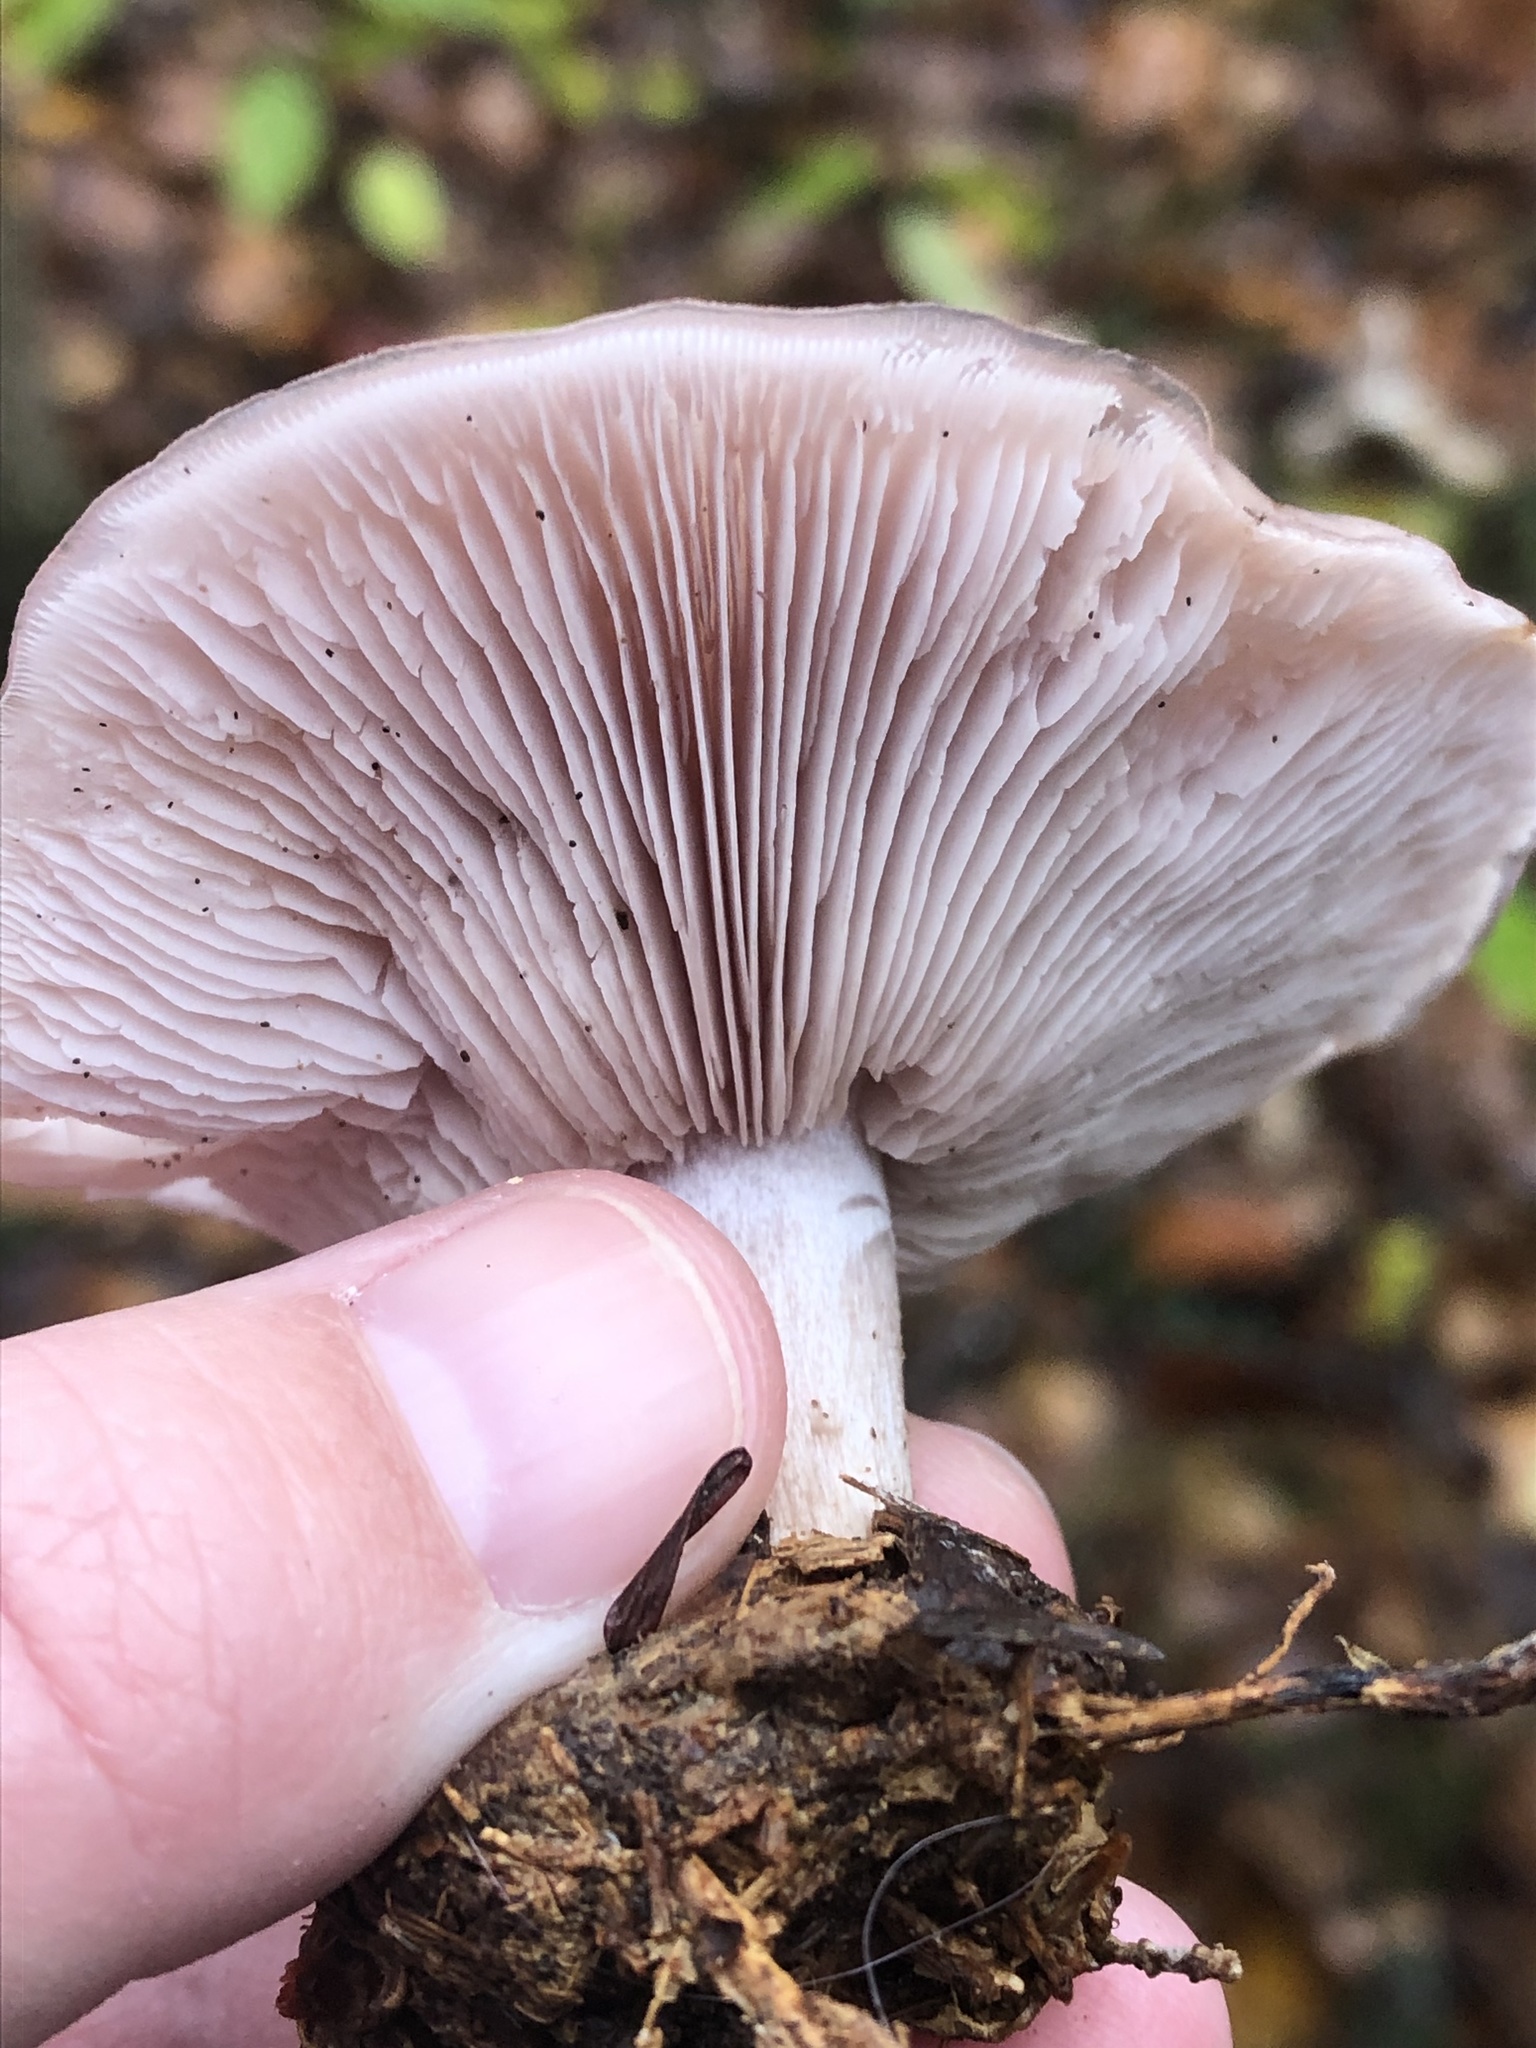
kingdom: Fungi
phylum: Basidiomycota
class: Agaricomycetes
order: Agaricales
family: Tricholomataceae
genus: Collybia
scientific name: Collybia
